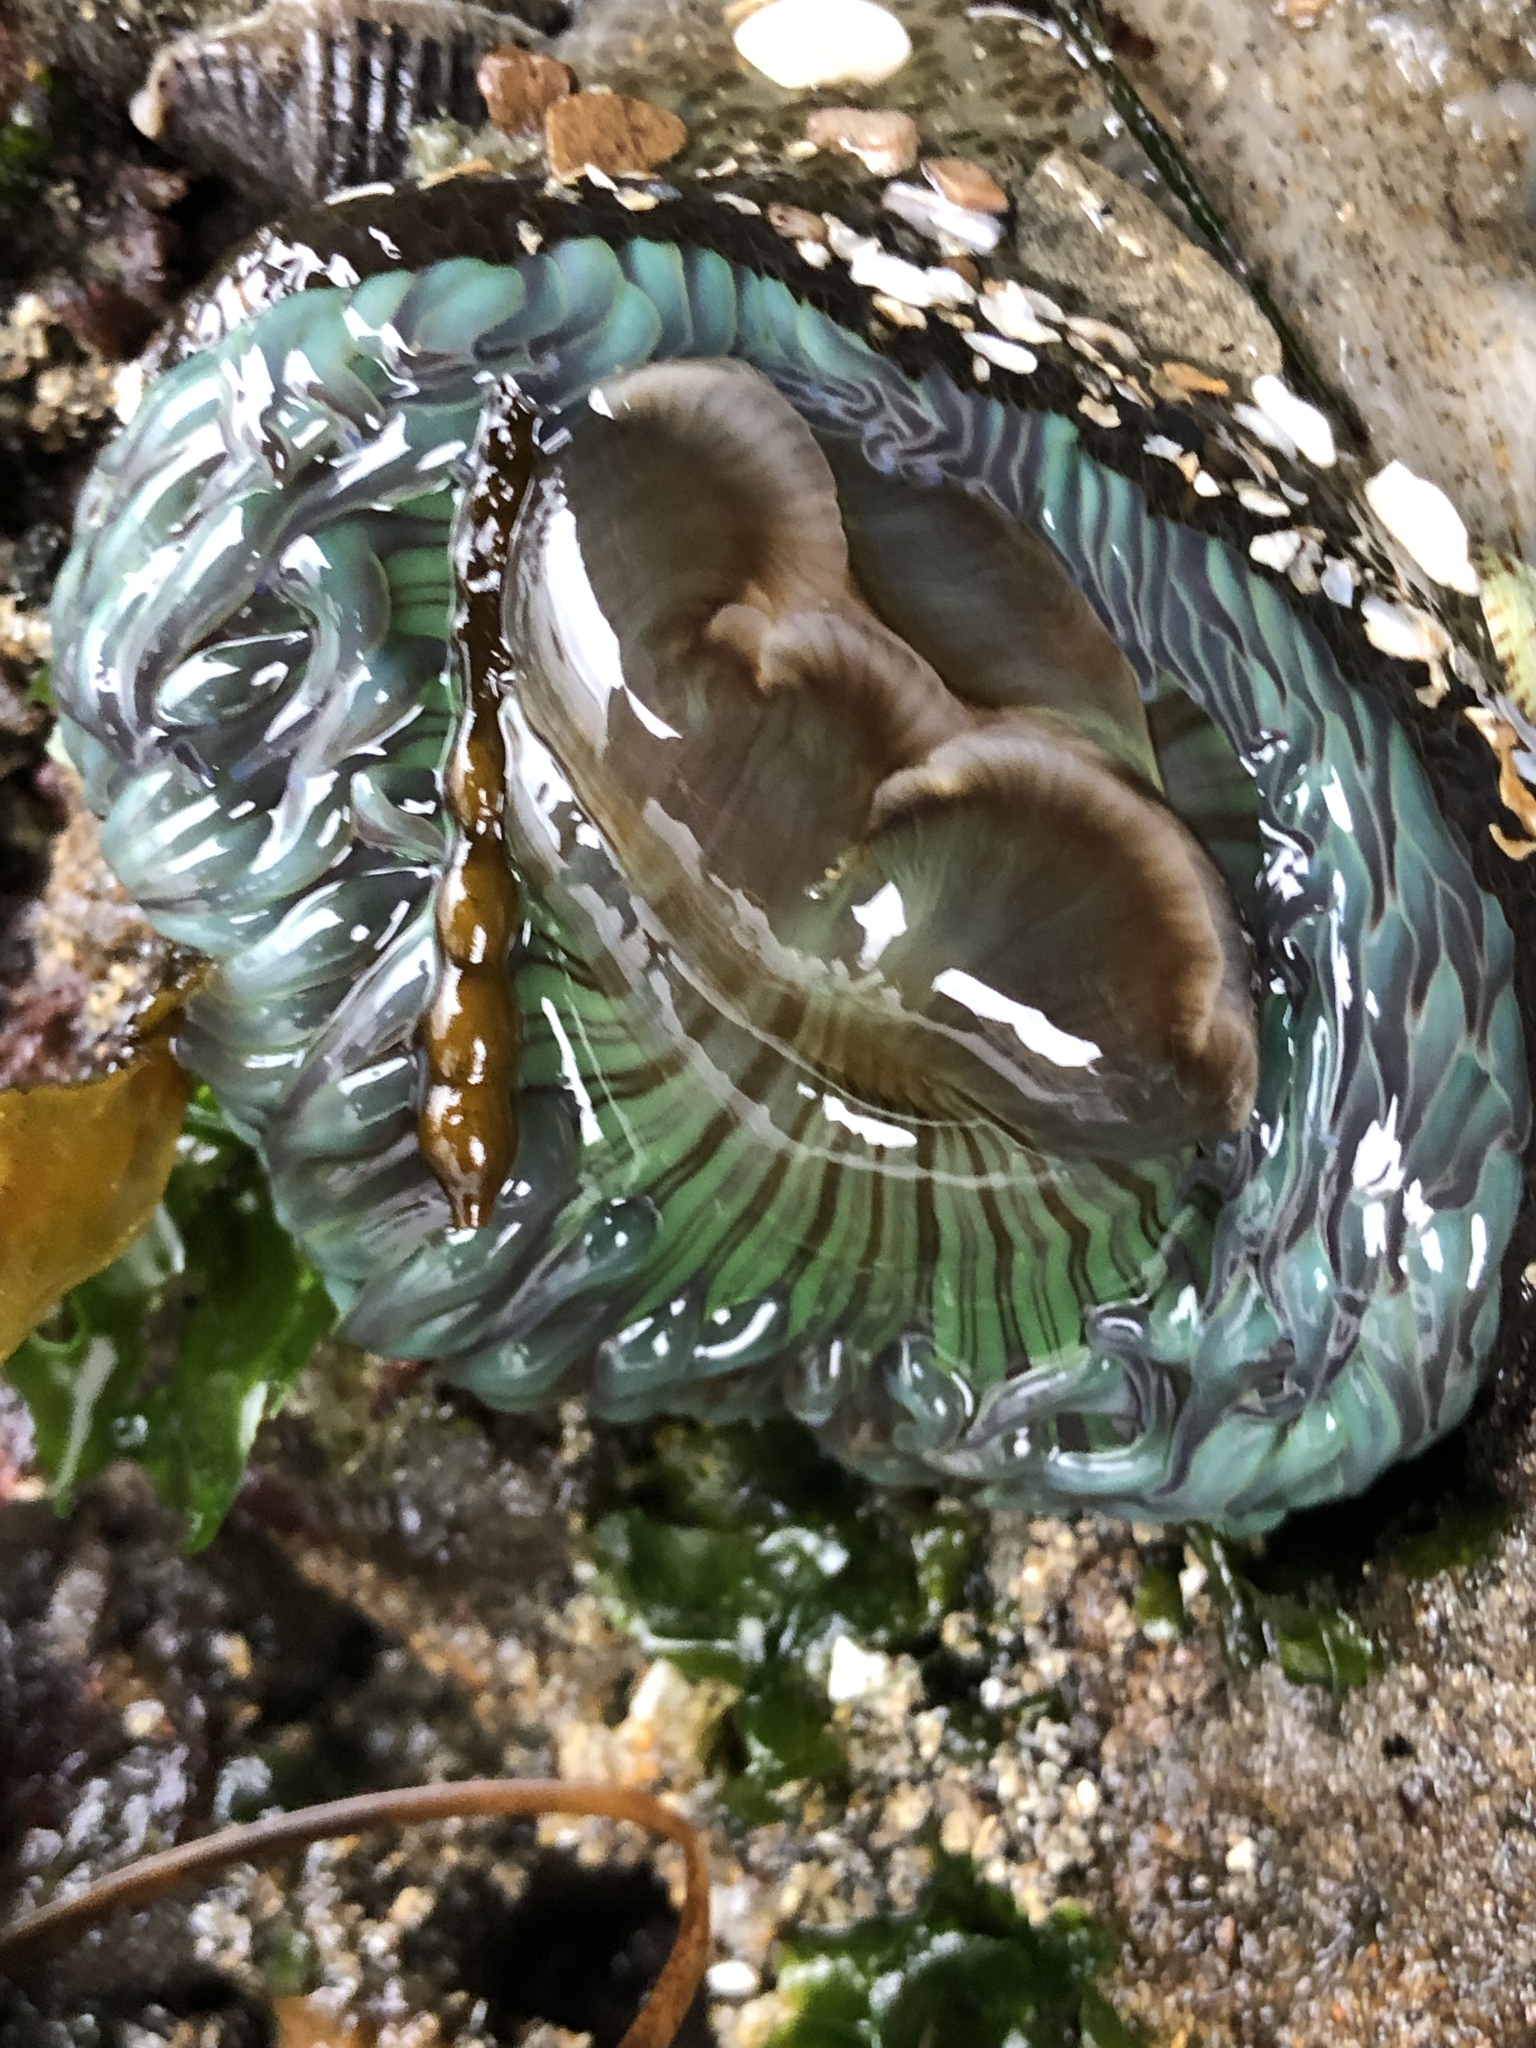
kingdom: Animalia
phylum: Cnidaria
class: Anthozoa
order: Actiniaria
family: Actiniidae
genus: Anthopleura
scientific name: Anthopleura sola
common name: Sun anemone
